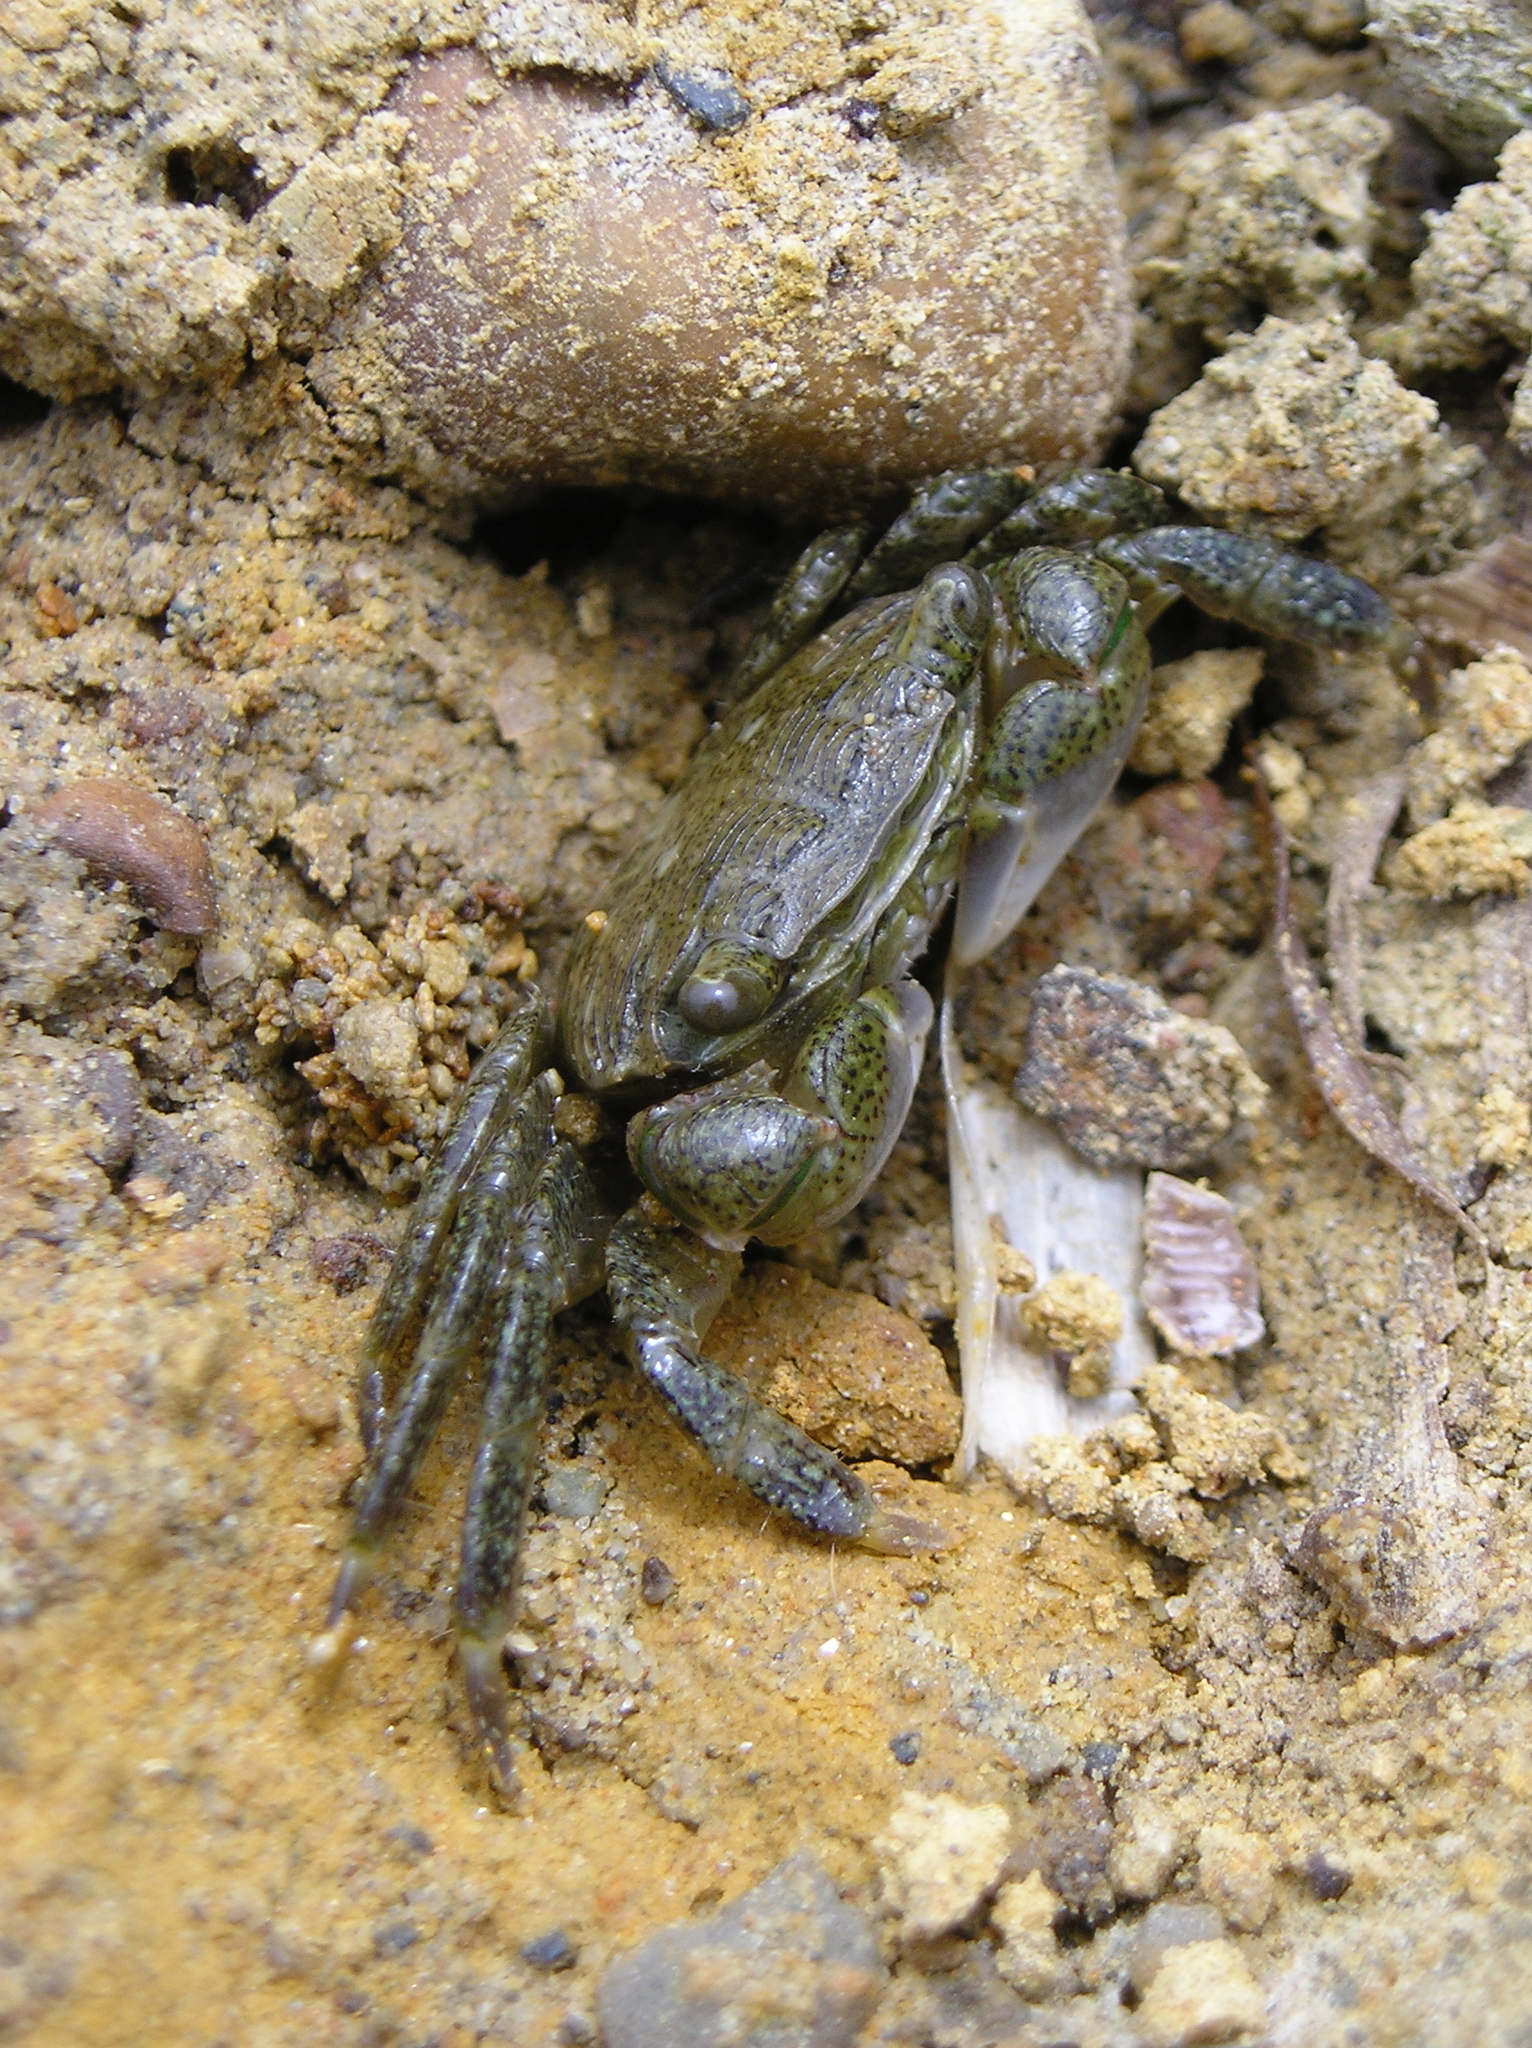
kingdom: Animalia
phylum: Arthropoda
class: Malacostraca
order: Decapoda
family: Grapsidae
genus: Pachygrapsus
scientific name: Pachygrapsus crassipes
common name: Striped shore crab
